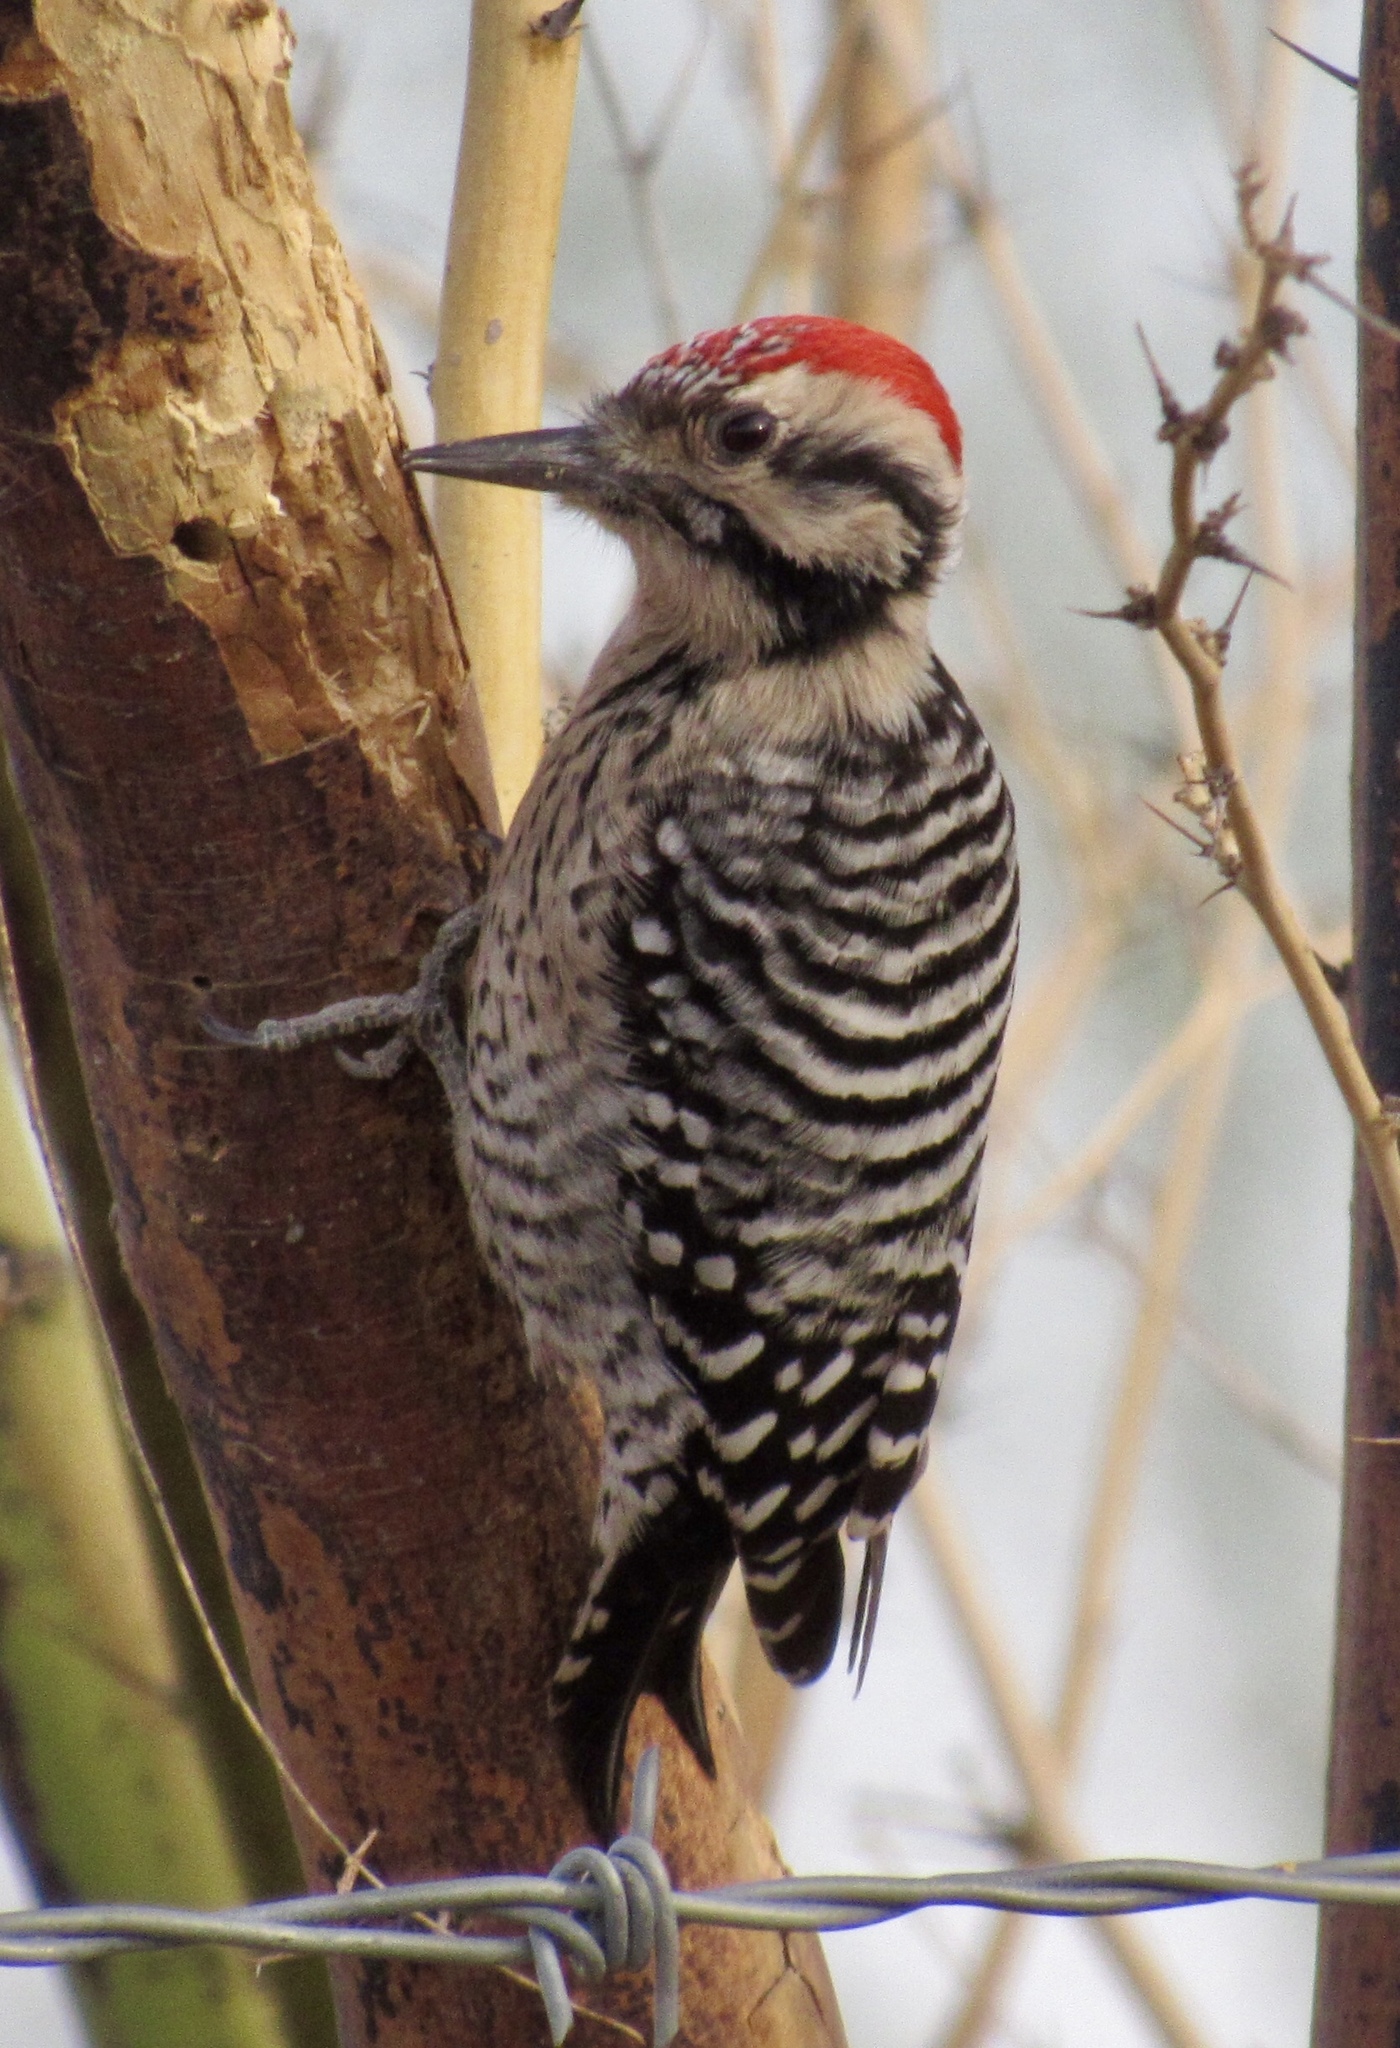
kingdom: Animalia
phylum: Chordata
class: Aves
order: Piciformes
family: Picidae
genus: Dryobates
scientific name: Dryobates scalaris
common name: Ladder-backed woodpecker
